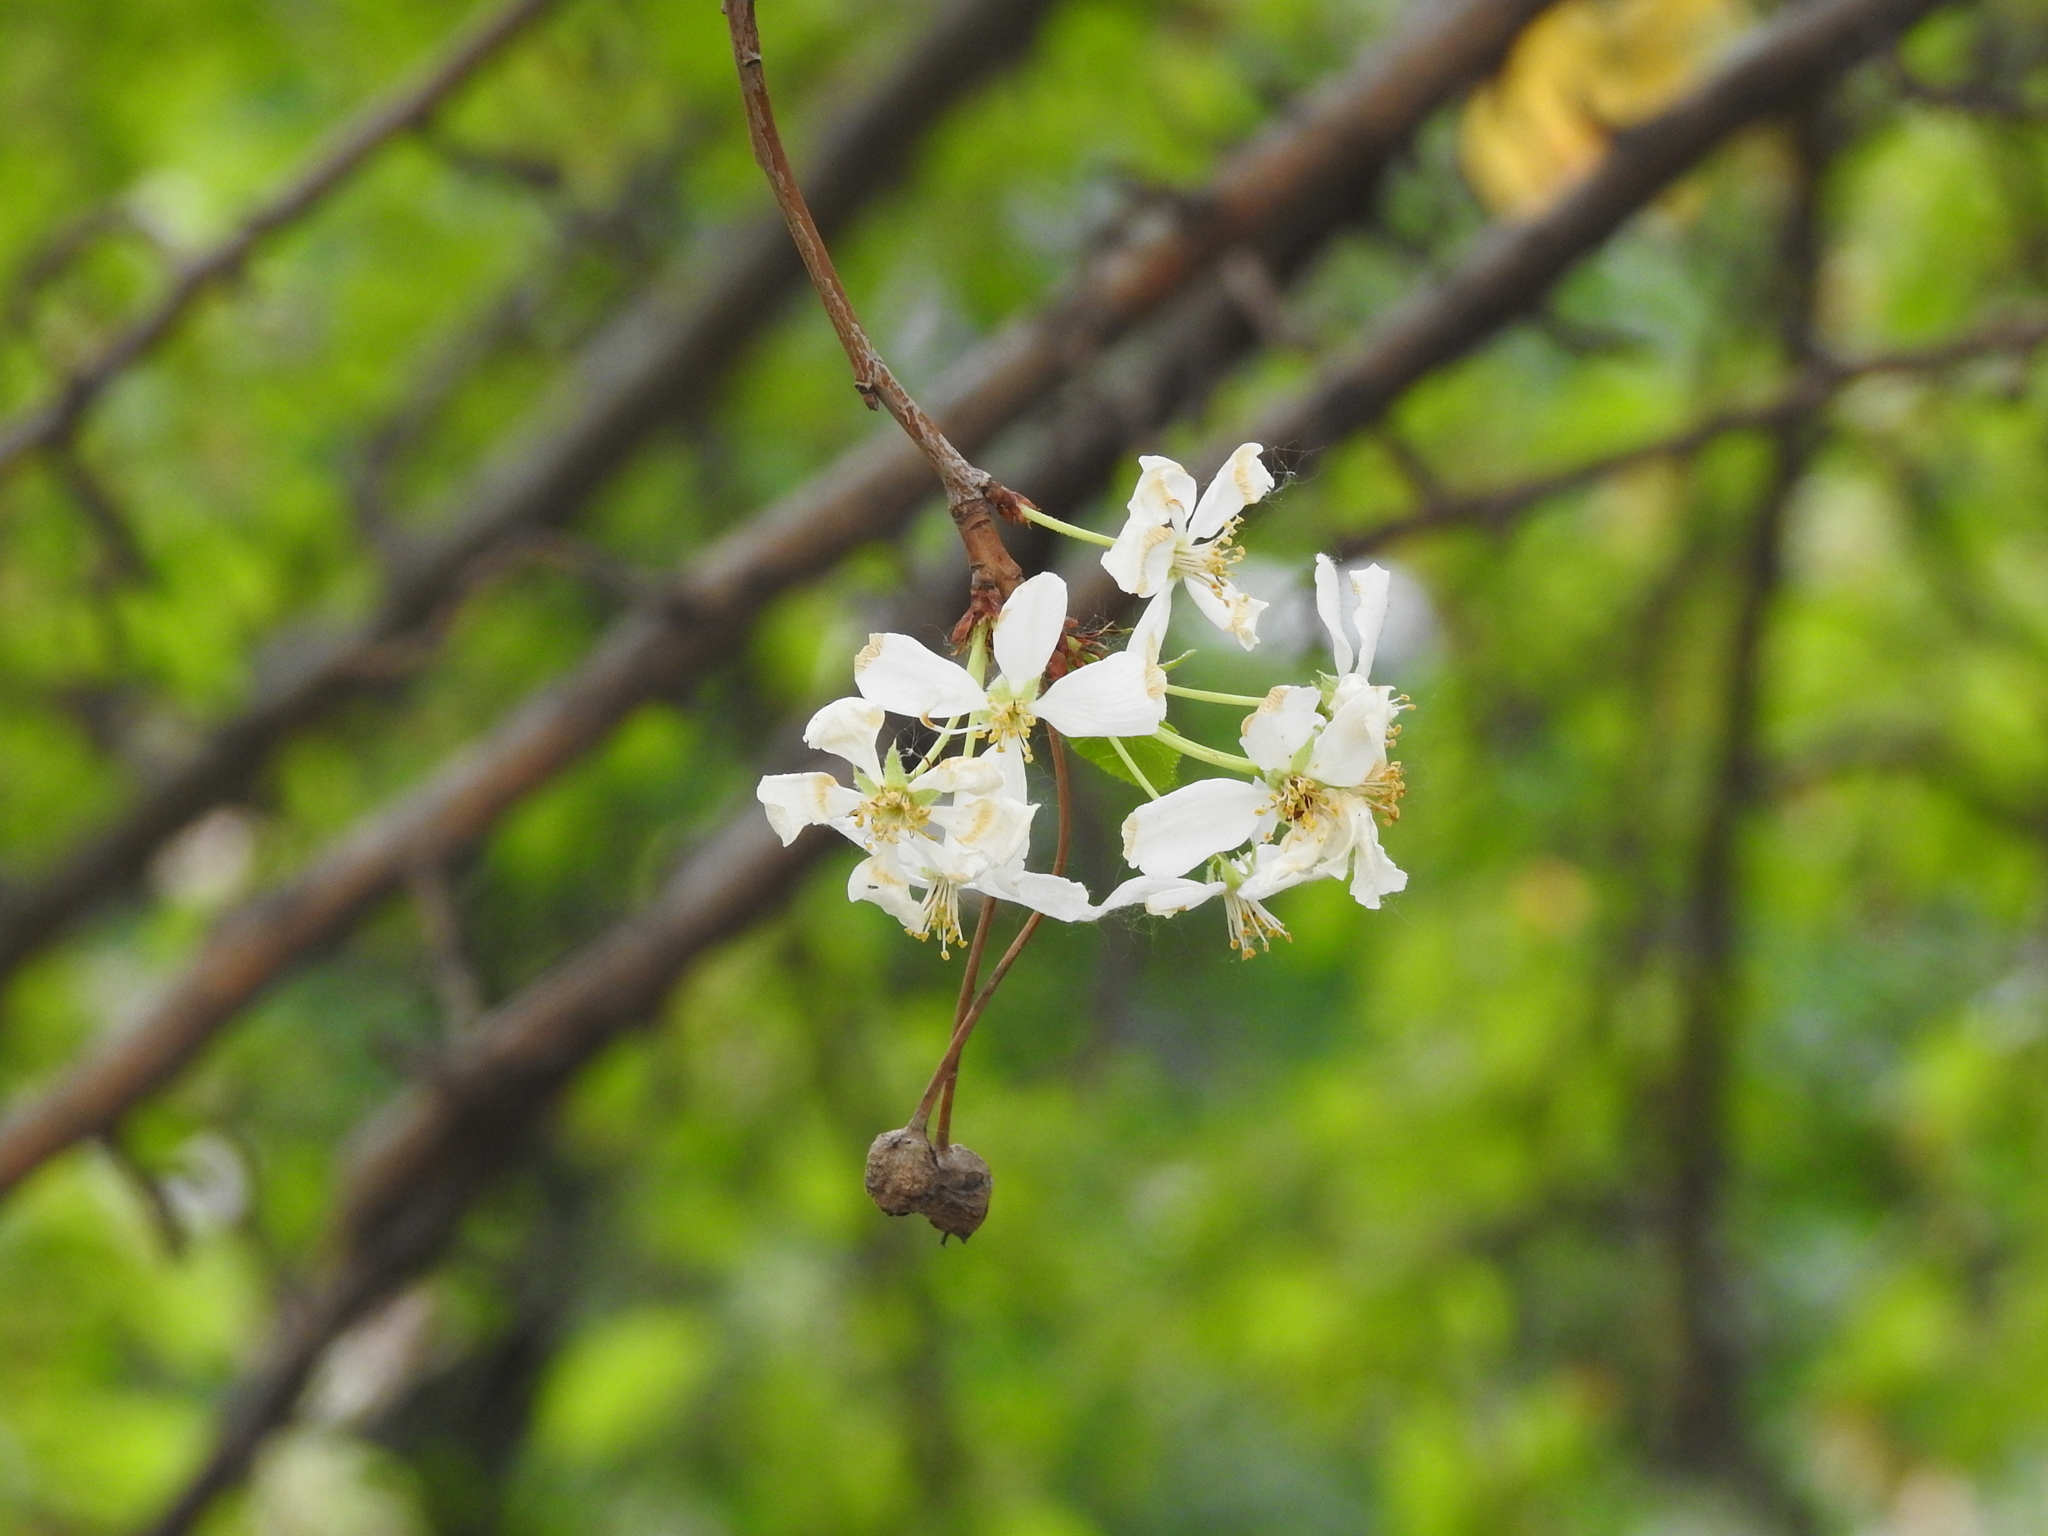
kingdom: Plantae
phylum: Tracheophyta
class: Magnoliopsida
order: Rosales
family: Rosaceae
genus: Prunus
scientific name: Prunus cerasus
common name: Morello cherry
